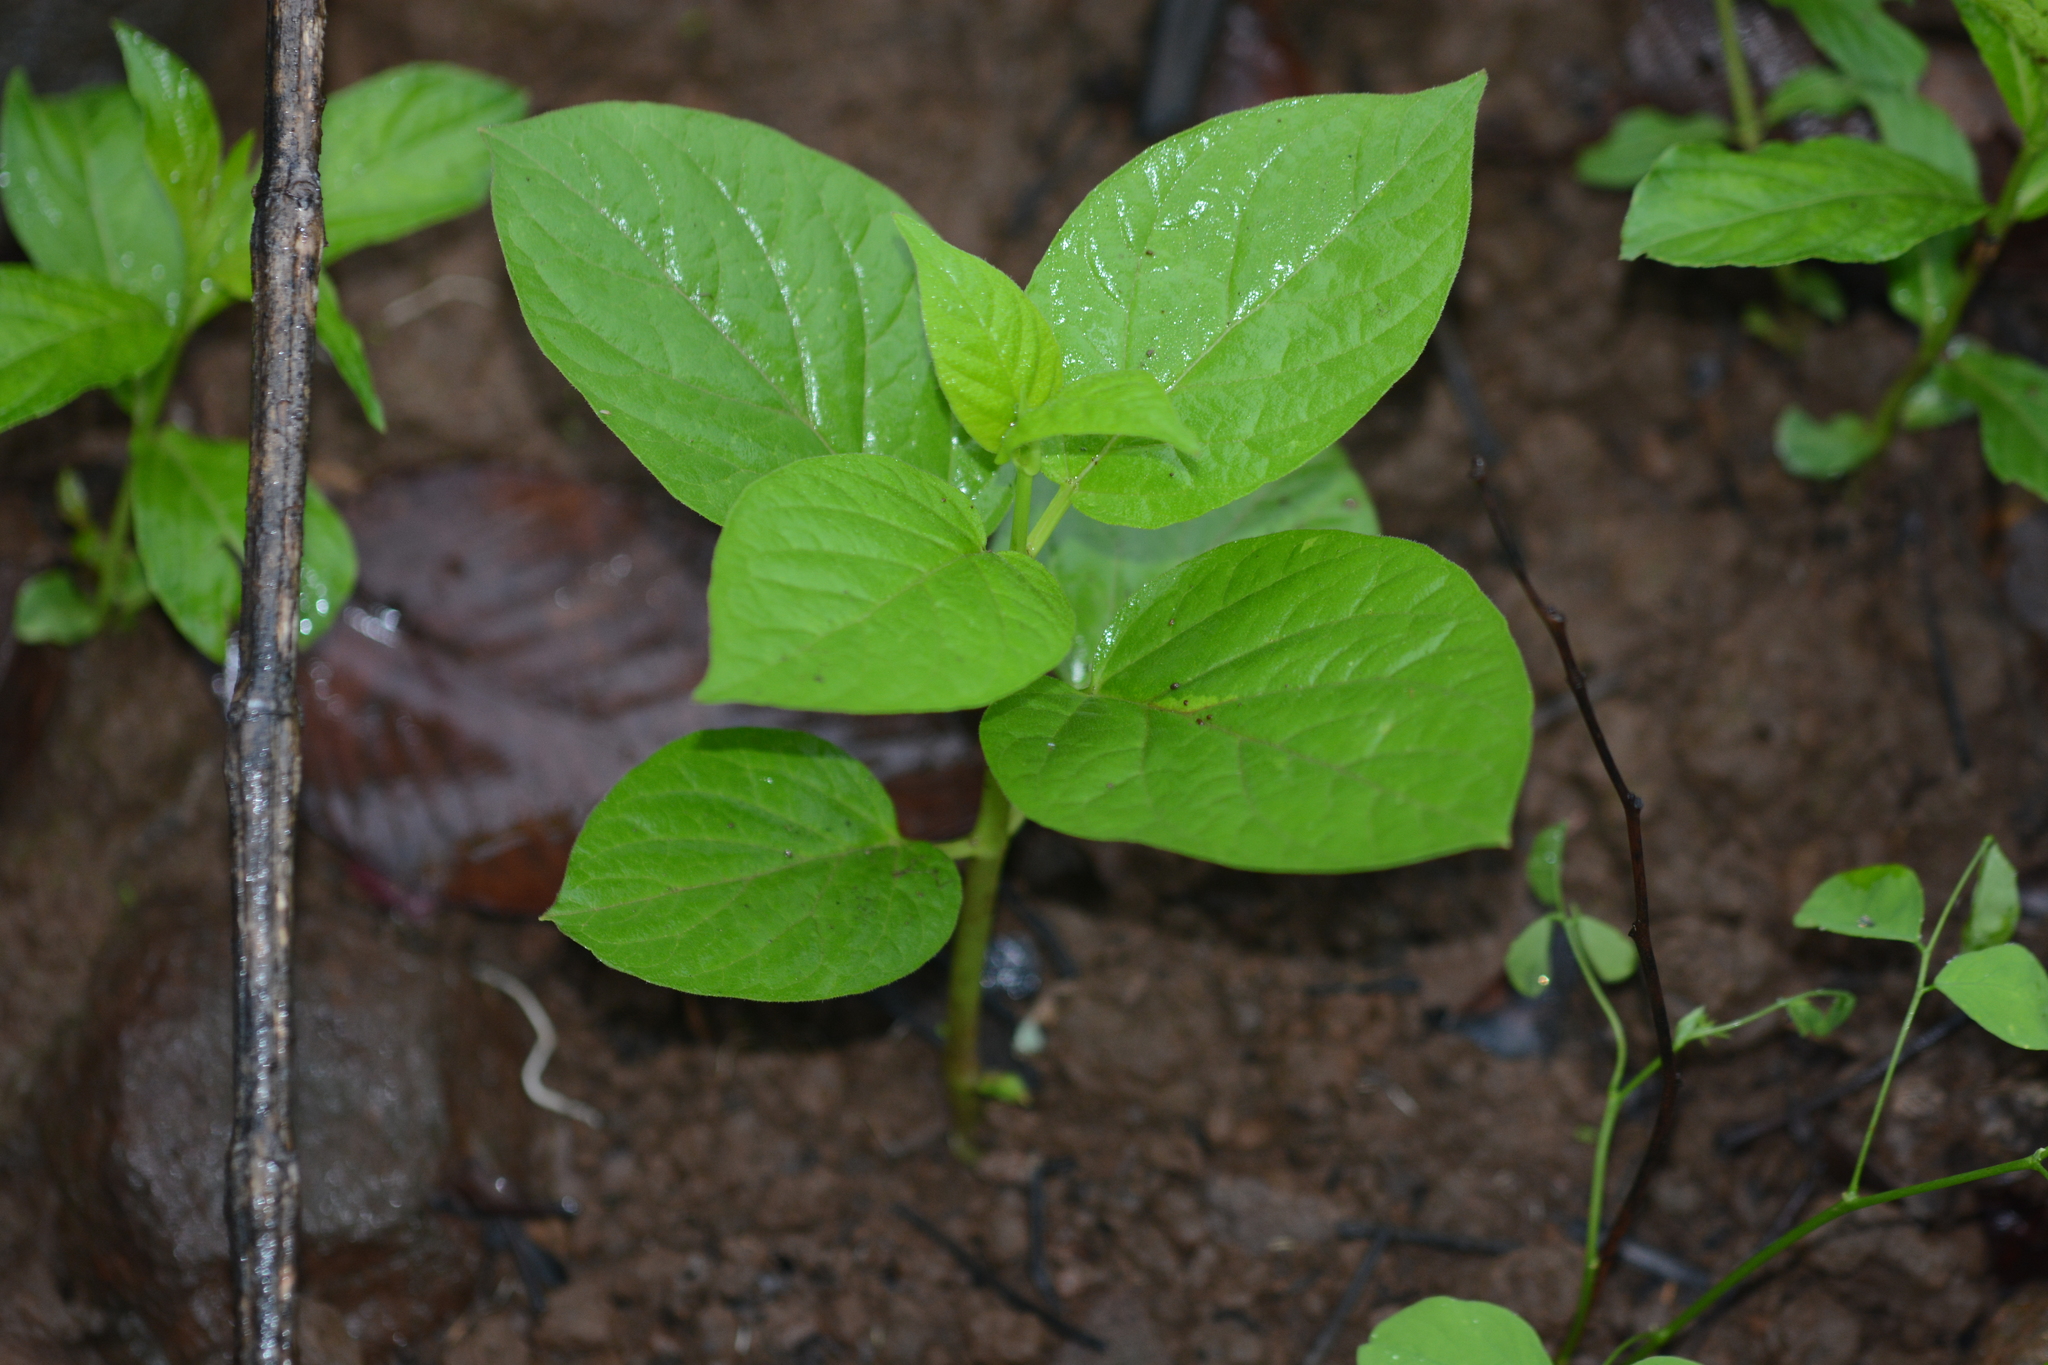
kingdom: Plantae
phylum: Tracheophyta
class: Magnoliopsida
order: Gentianales
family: Apocynaceae
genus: Ceropegia
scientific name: Ceropegia vincifolia
